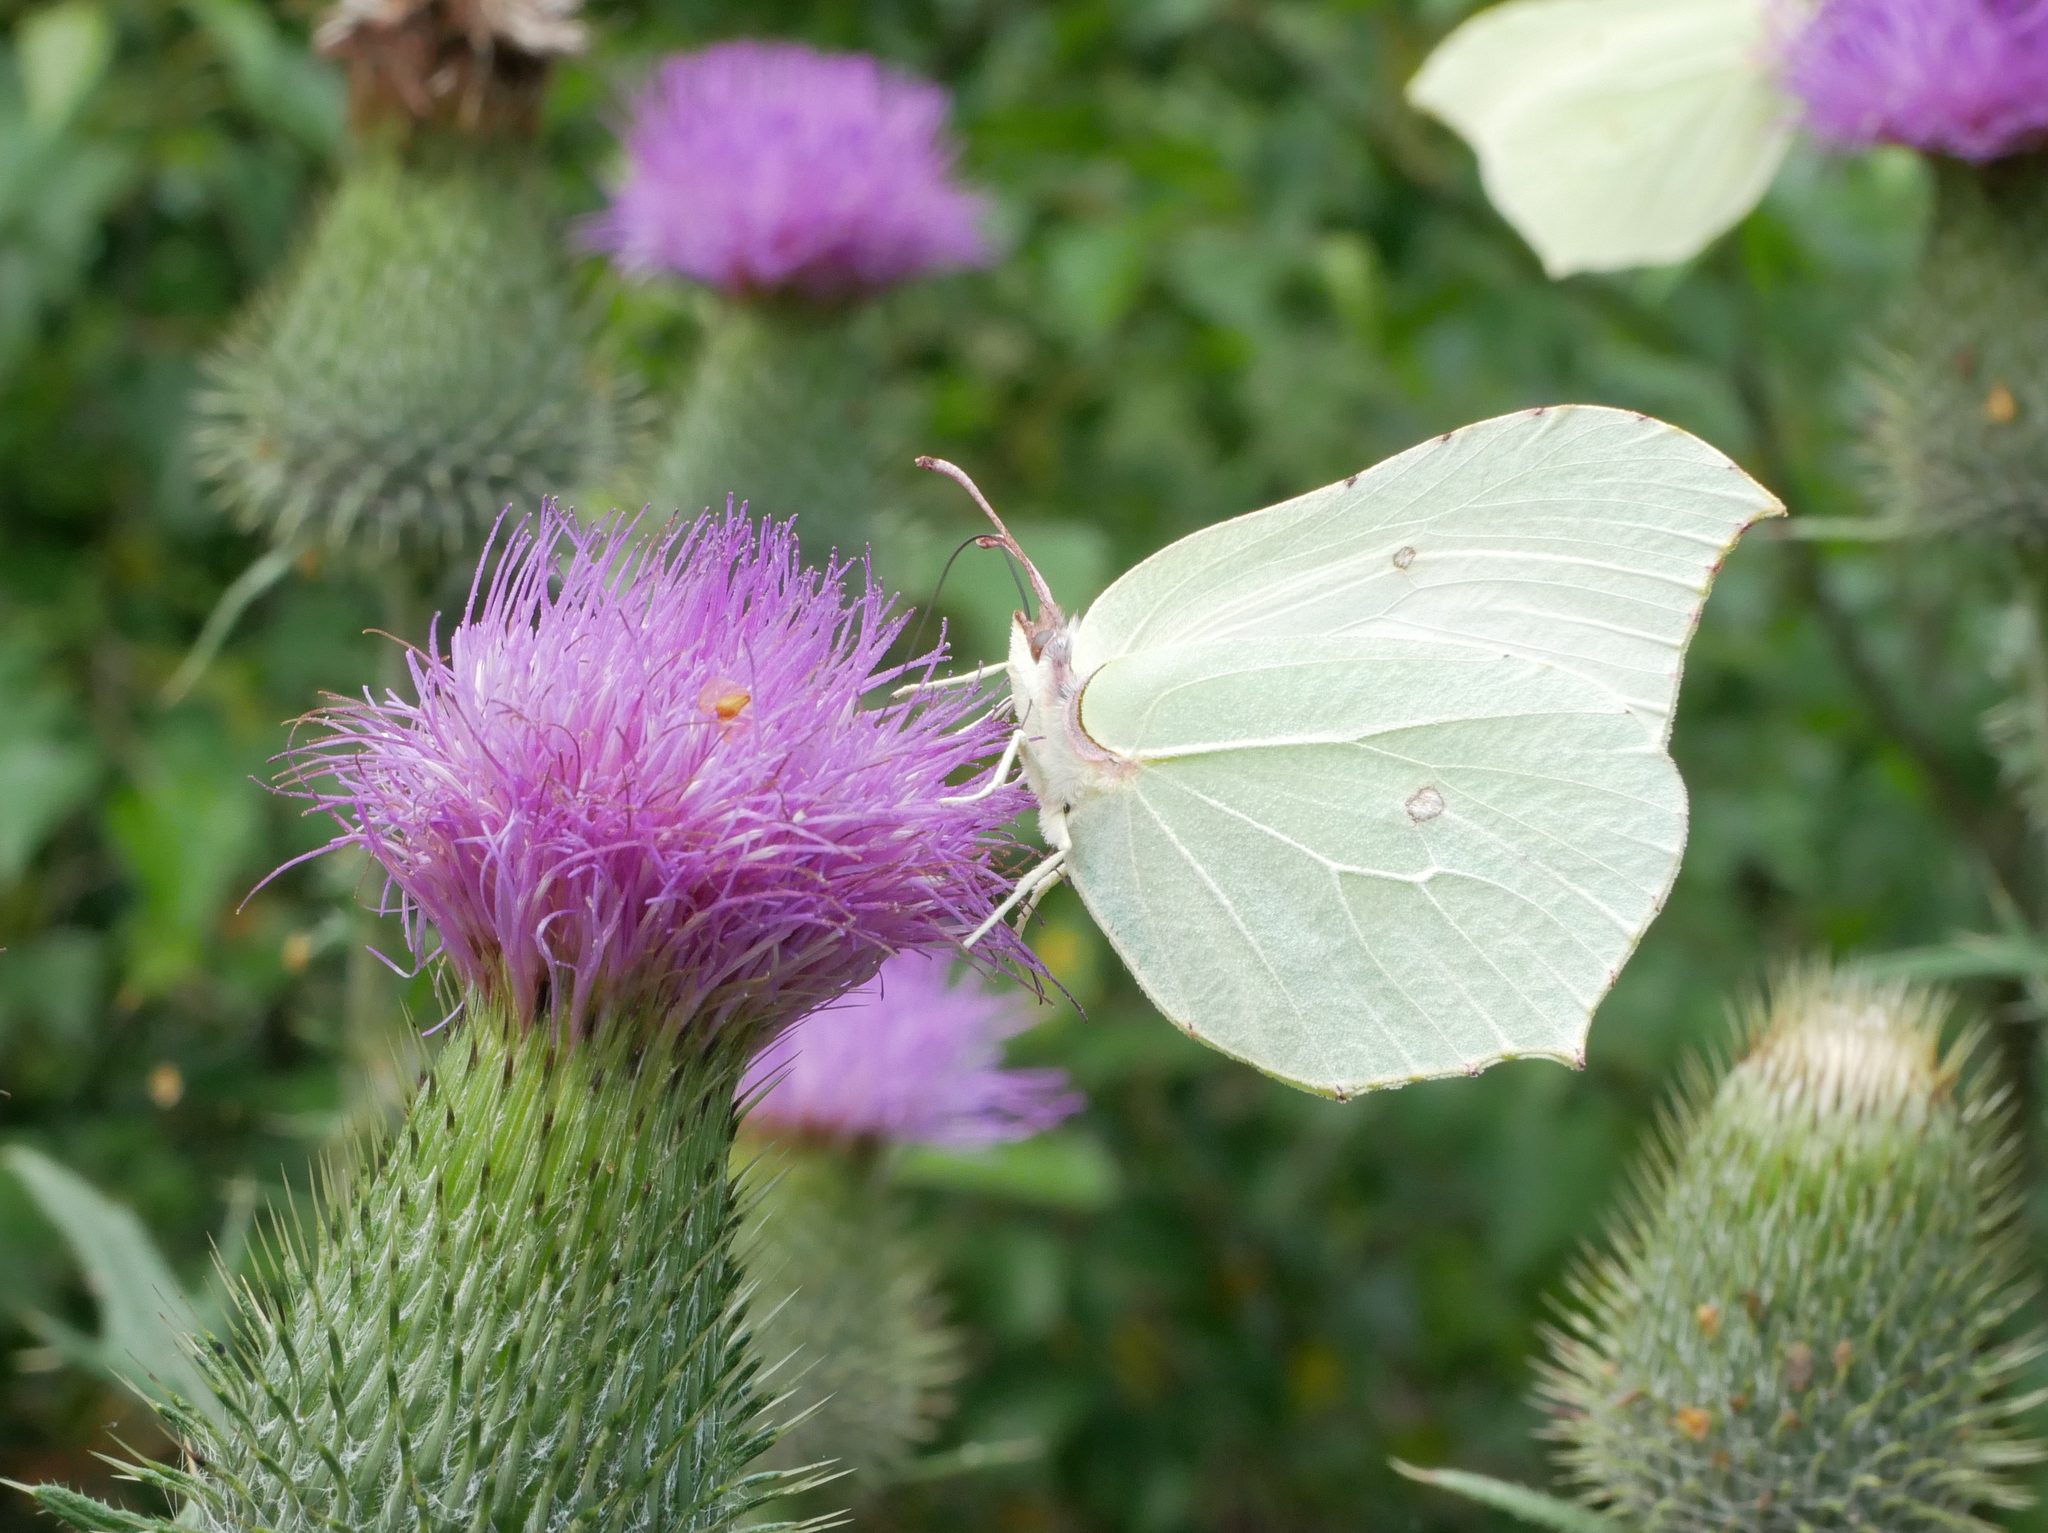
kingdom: Animalia
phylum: Arthropoda
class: Insecta
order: Lepidoptera
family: Pieridae
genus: Gonepteryx
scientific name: Gonepteryx rhamni
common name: Brimstone
